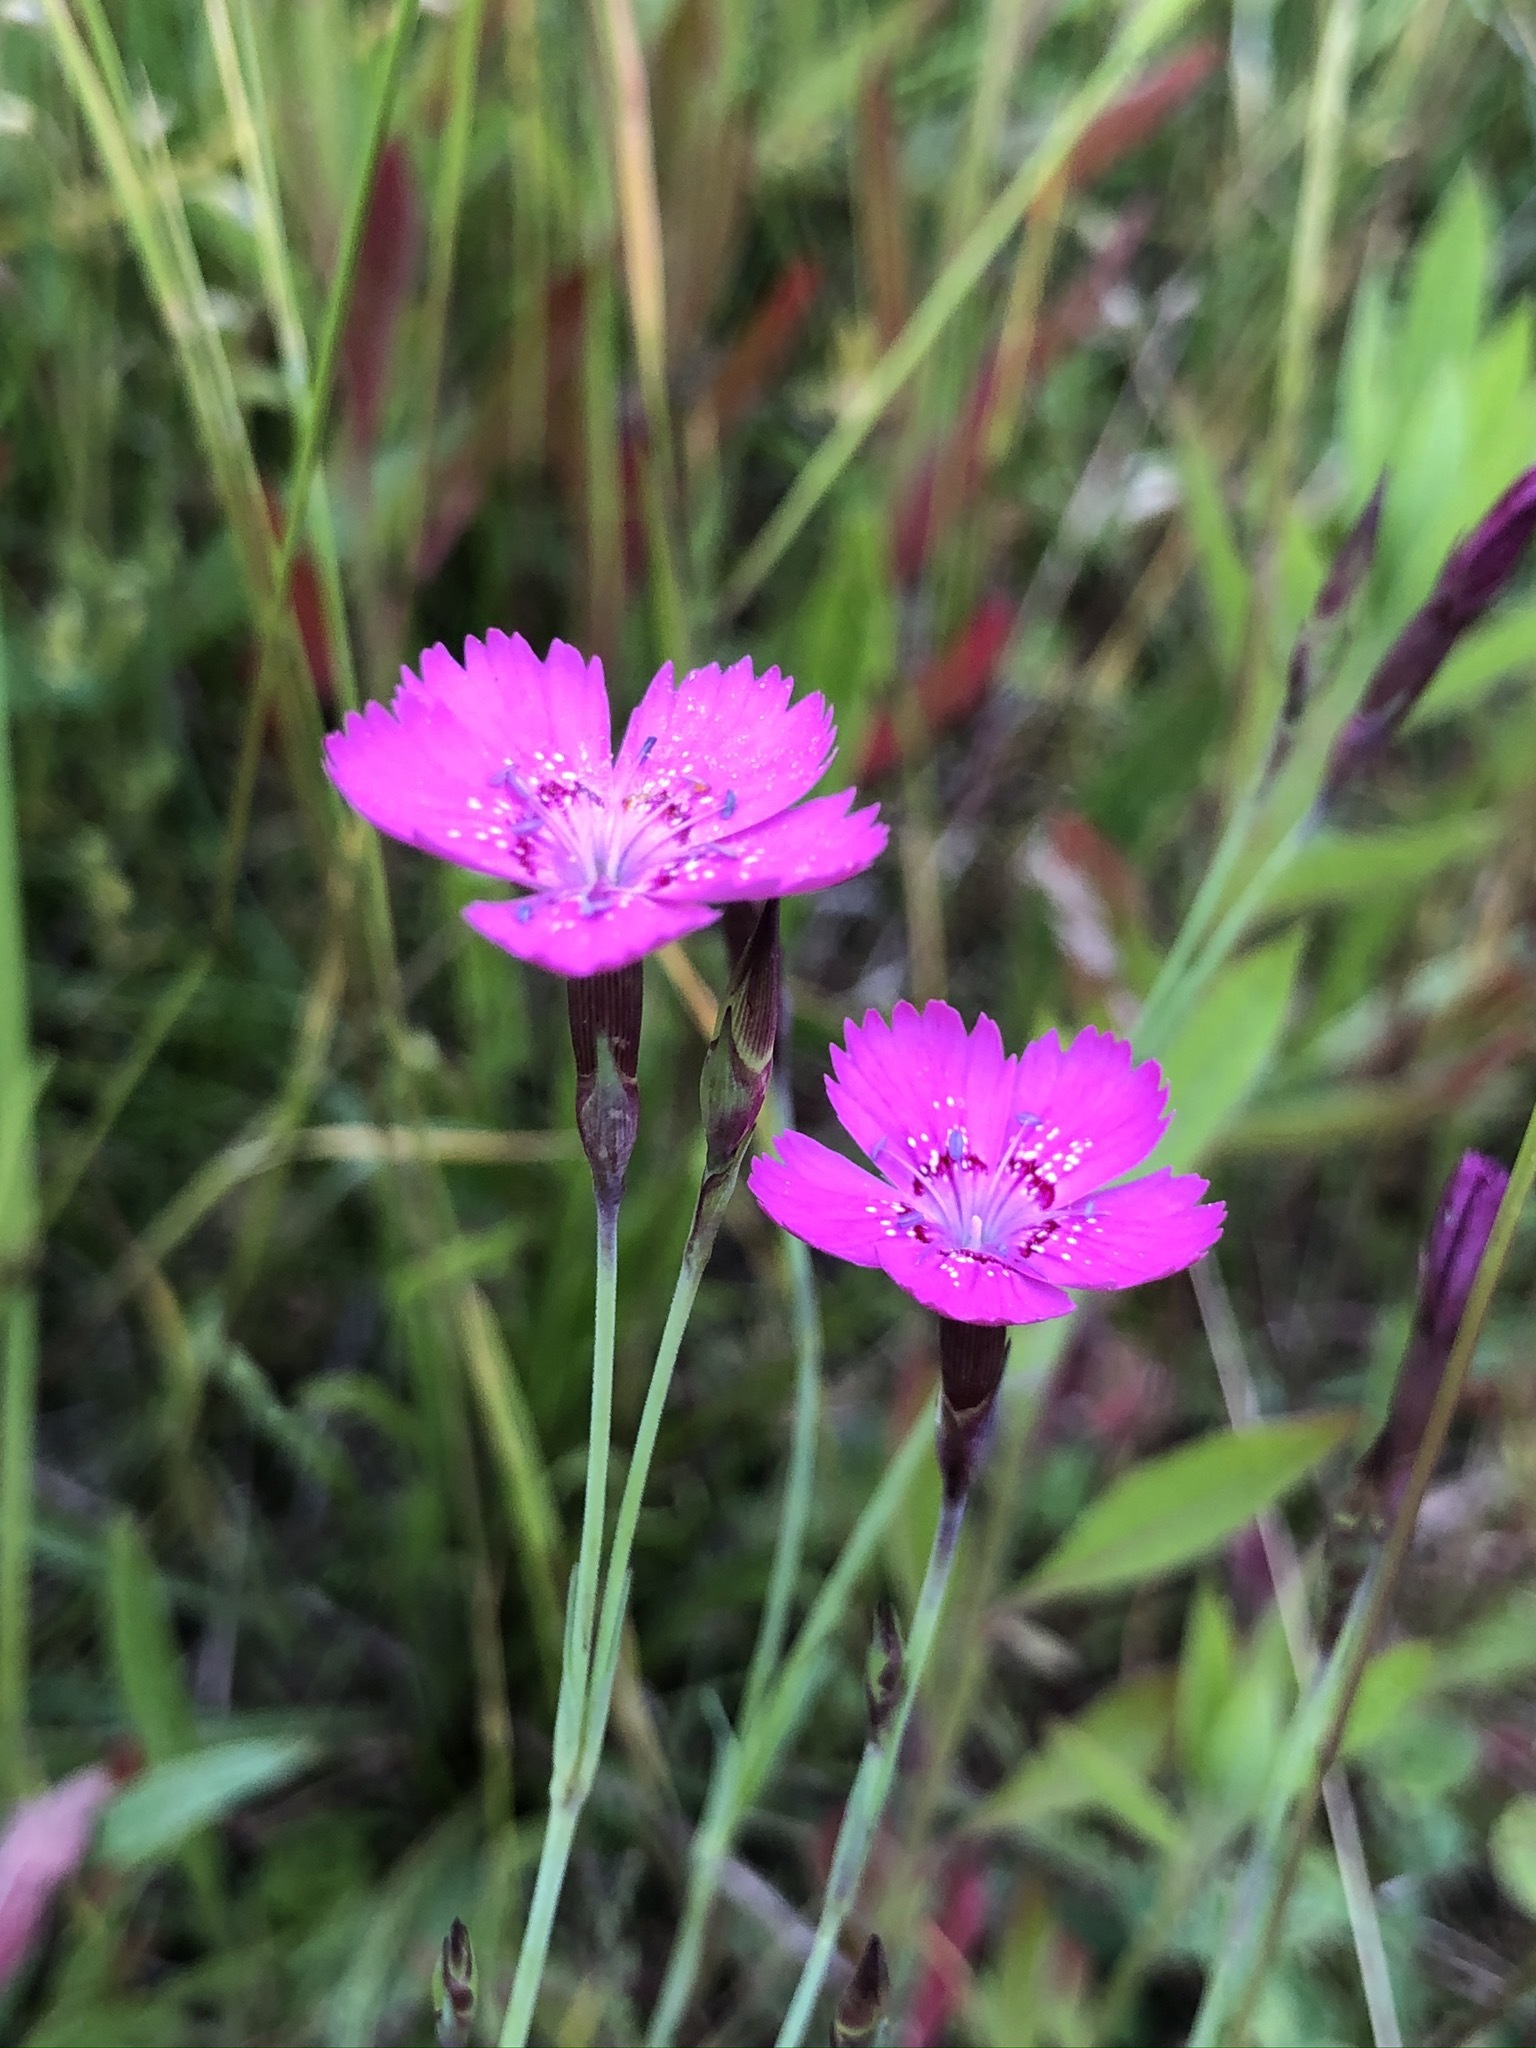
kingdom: Plantae
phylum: Tracheophyta
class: Magnoliopsida
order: Caryophyllales
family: Caryophyllaceae
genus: Dianthus
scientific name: Dianthus deltoides
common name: Maiden pink
